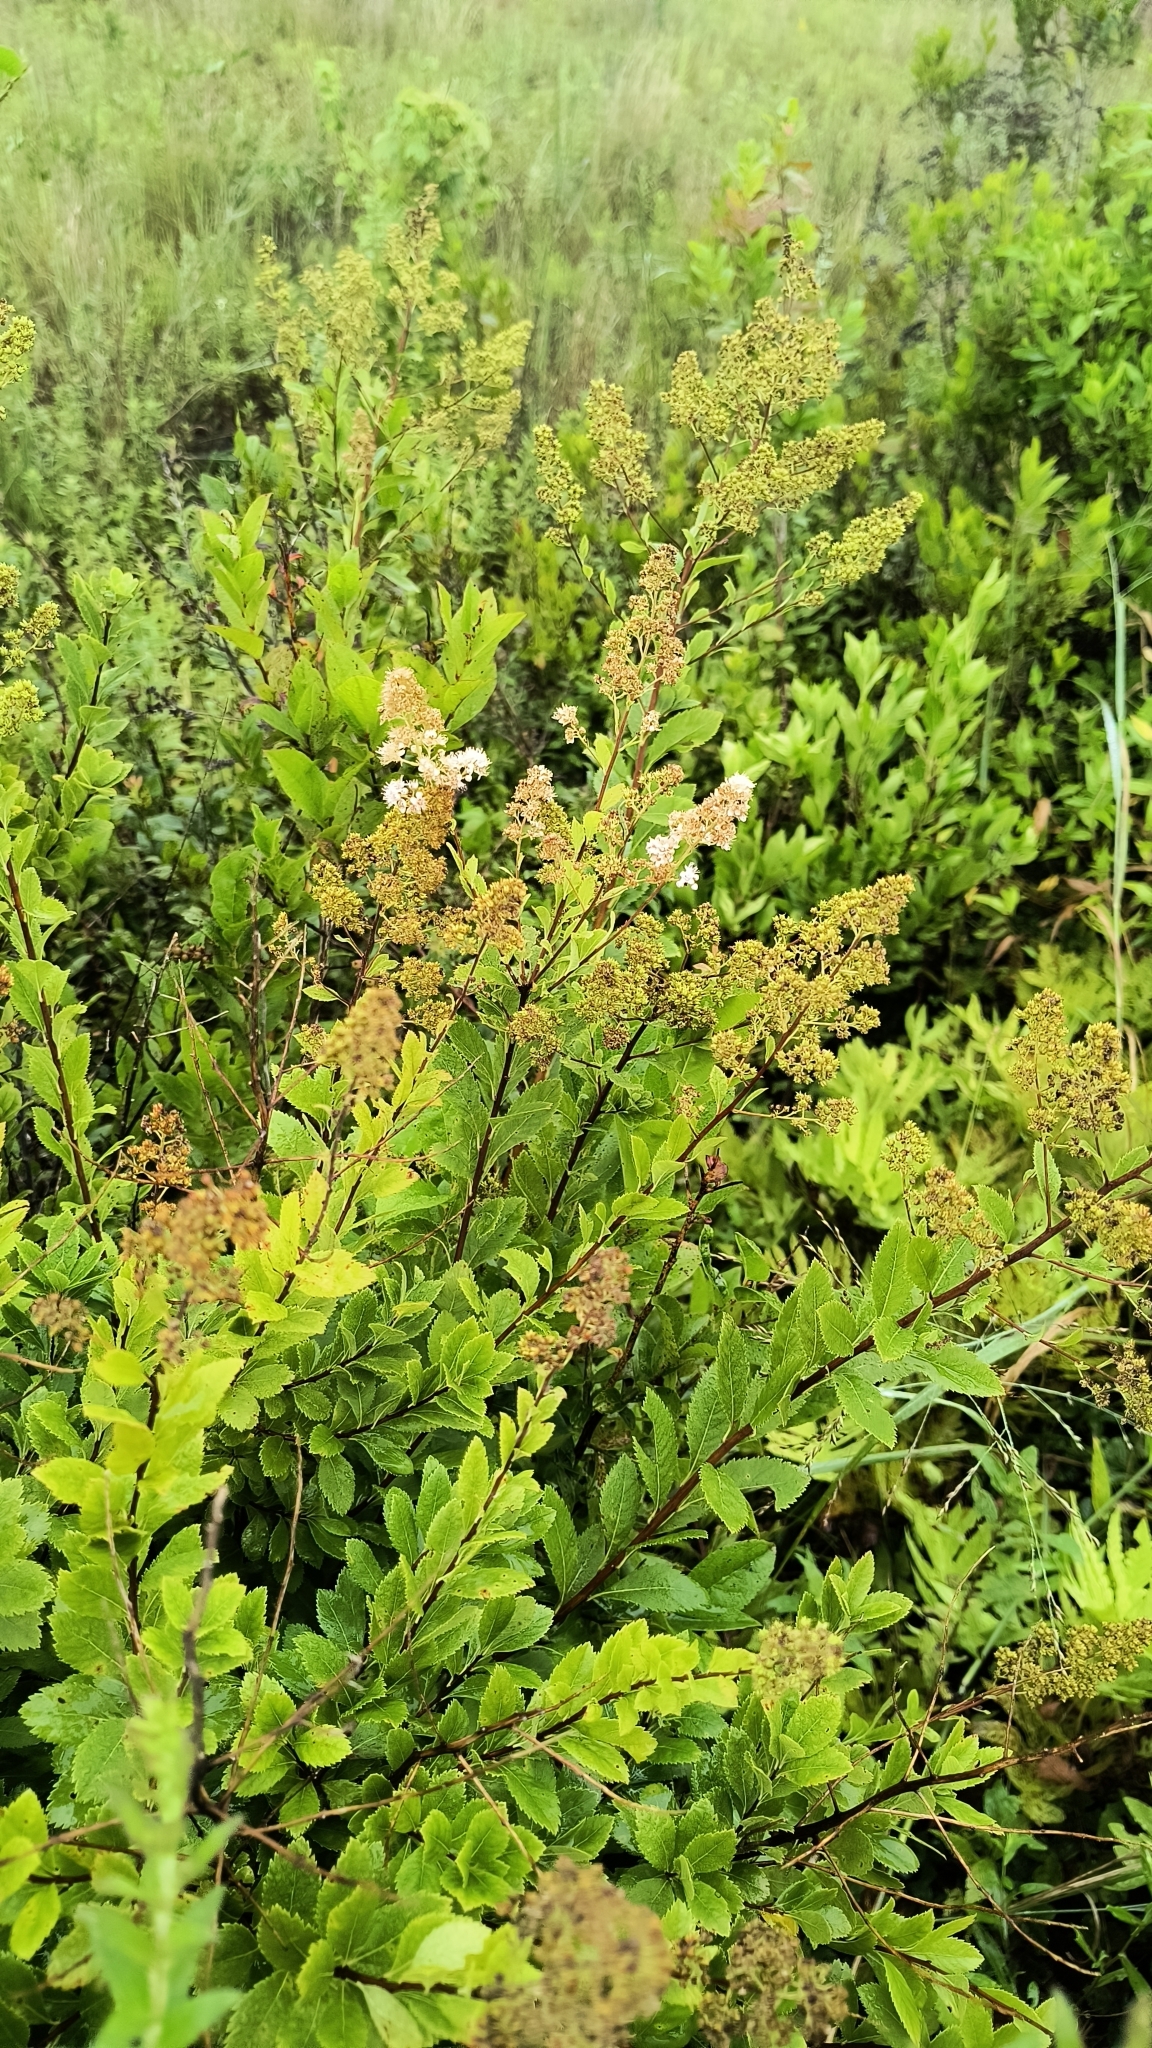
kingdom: Plantae
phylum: Tracheophyta
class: Magnoliopsida
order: Rosales
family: Rosaceae
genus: Spiraea
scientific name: Spiraea alba
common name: Pale bridewort
